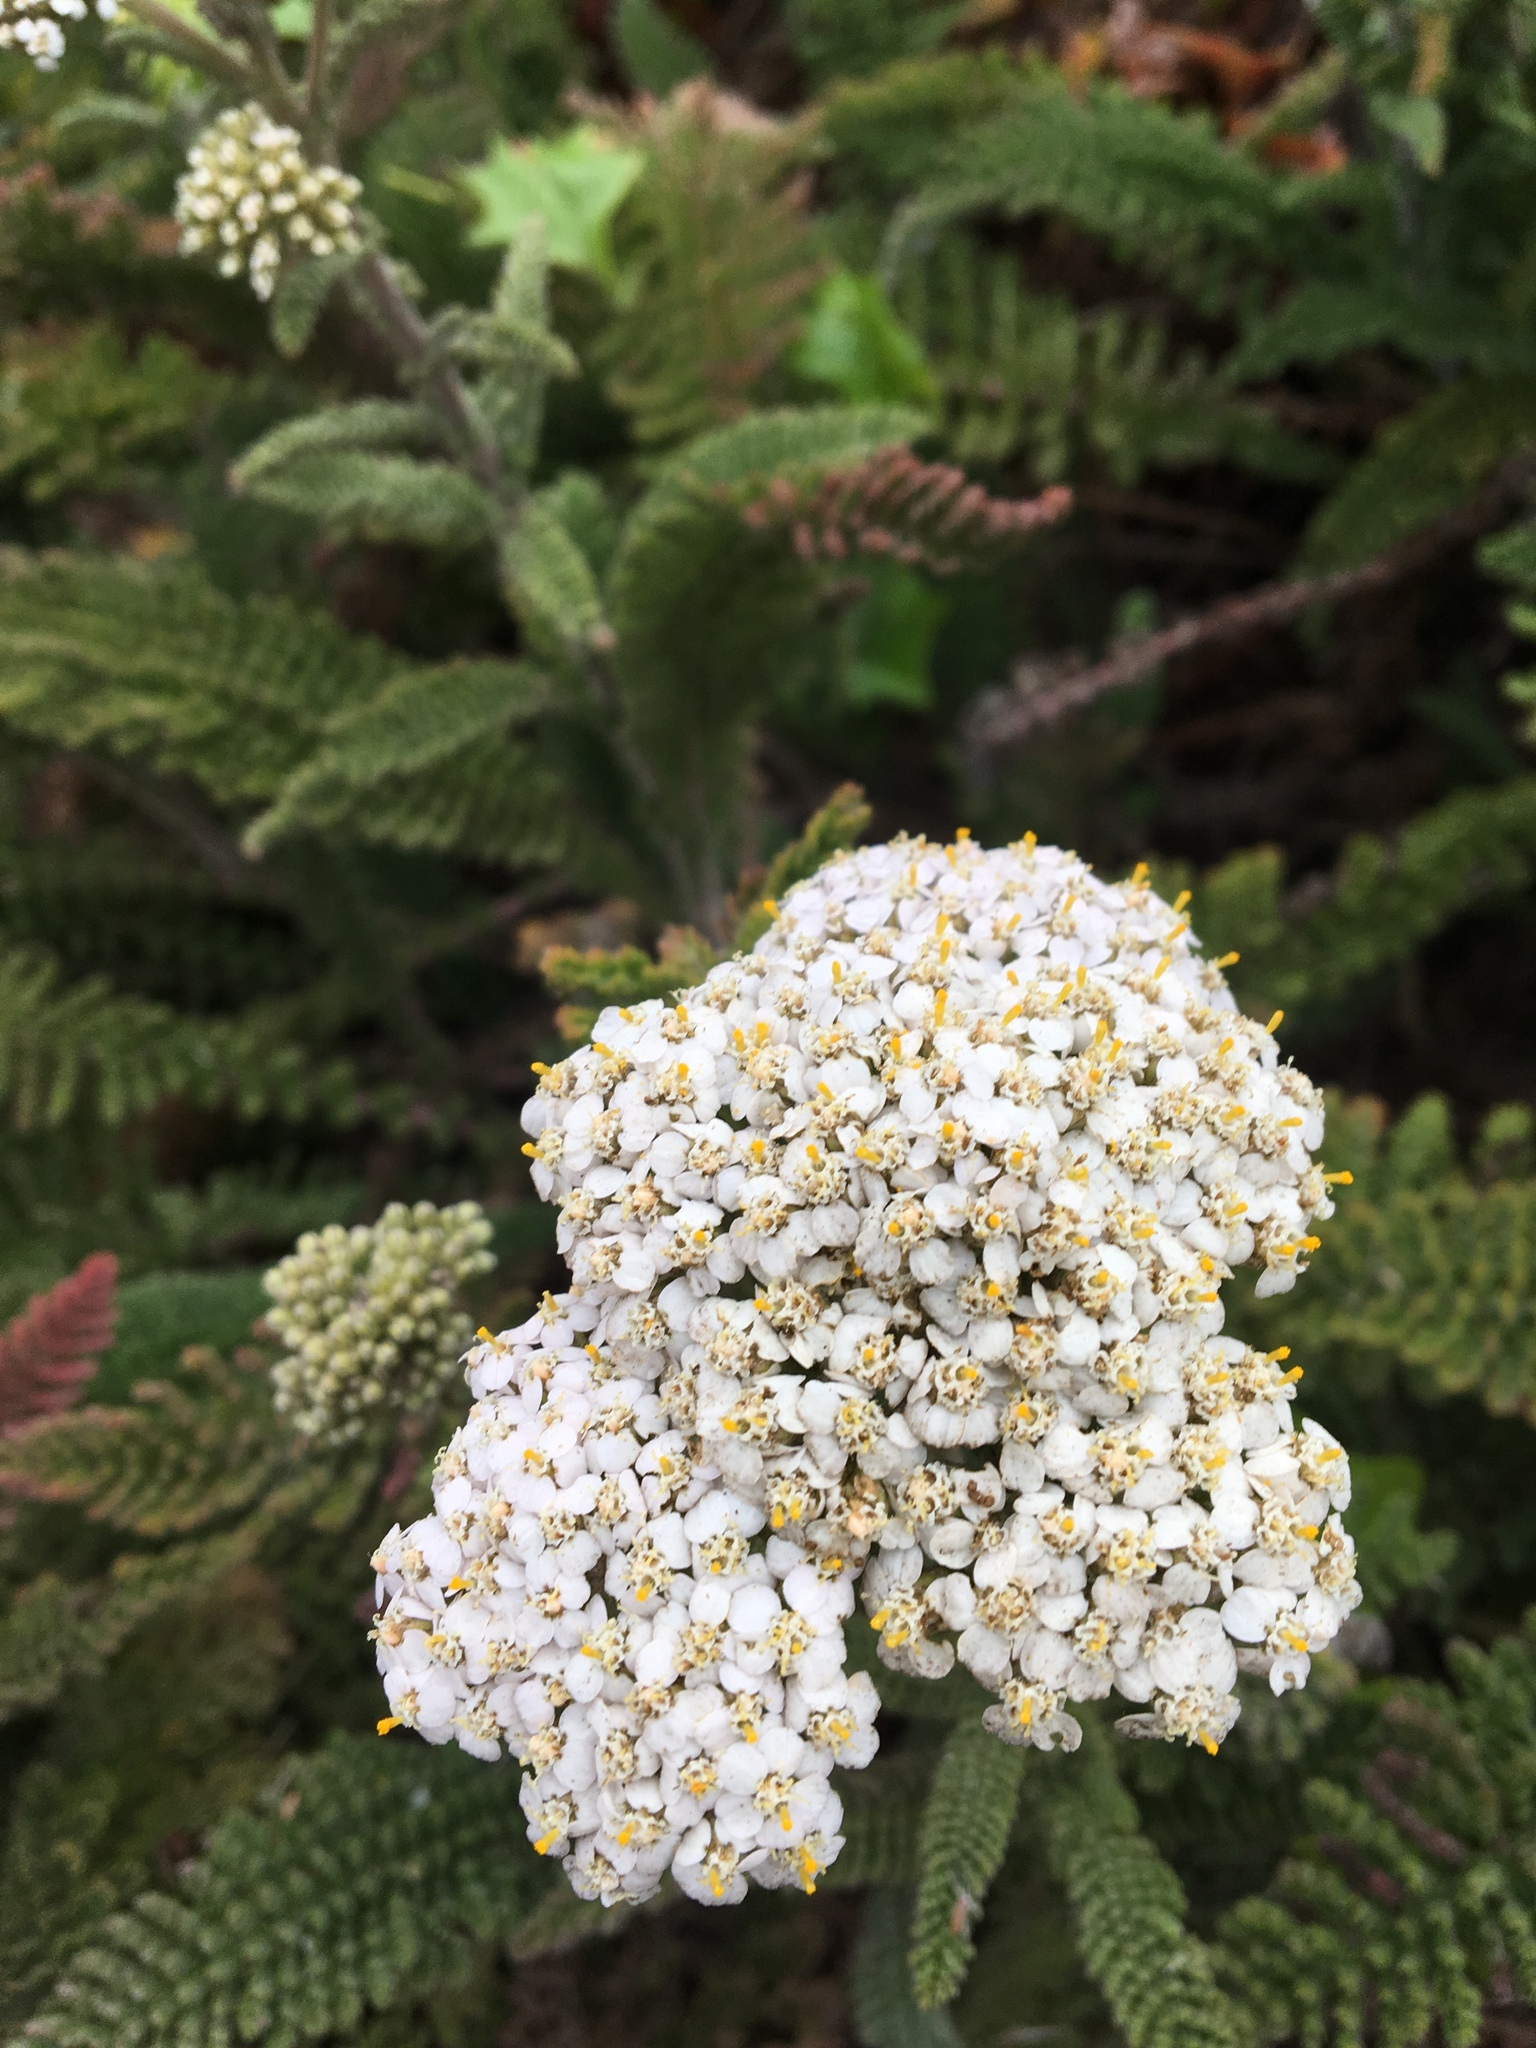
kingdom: Plantae
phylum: Tracheophyta
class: Magnoliopsida
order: Asterales
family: Asteraceae
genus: Achillea
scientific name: Achillea millefolium
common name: Yarrow
